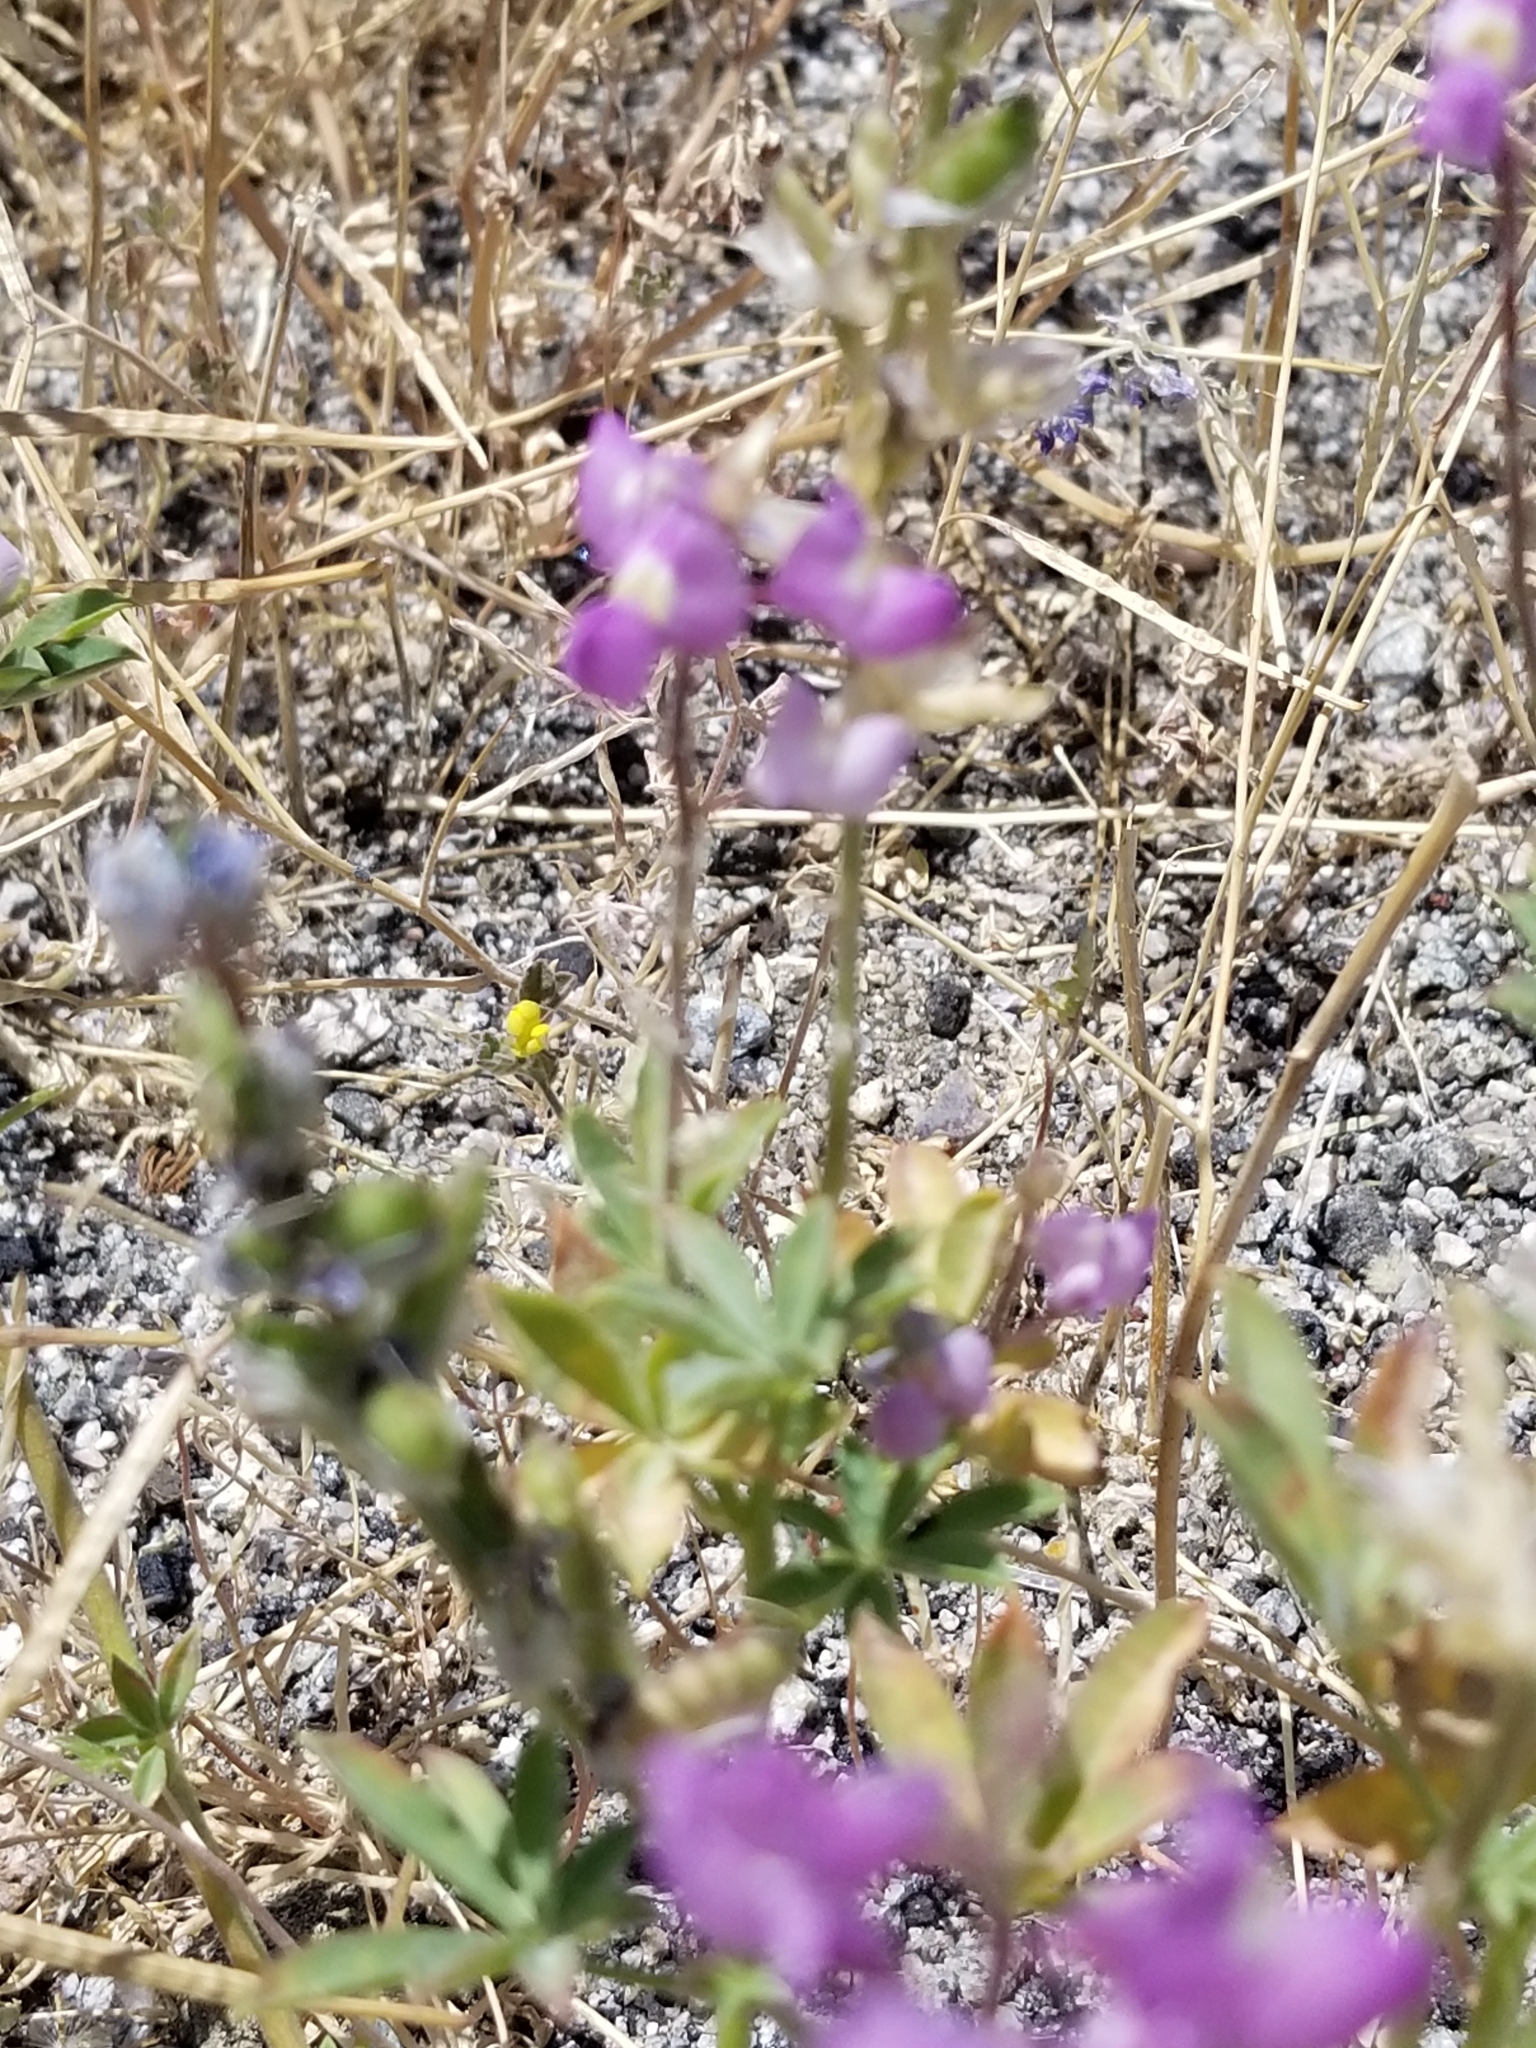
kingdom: Plantae
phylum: Tracheophyta
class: Magnoliopsida
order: Fabales
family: Fabaceae
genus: Lupinus
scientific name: Lupinus arizonicus
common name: Arizona lupine
